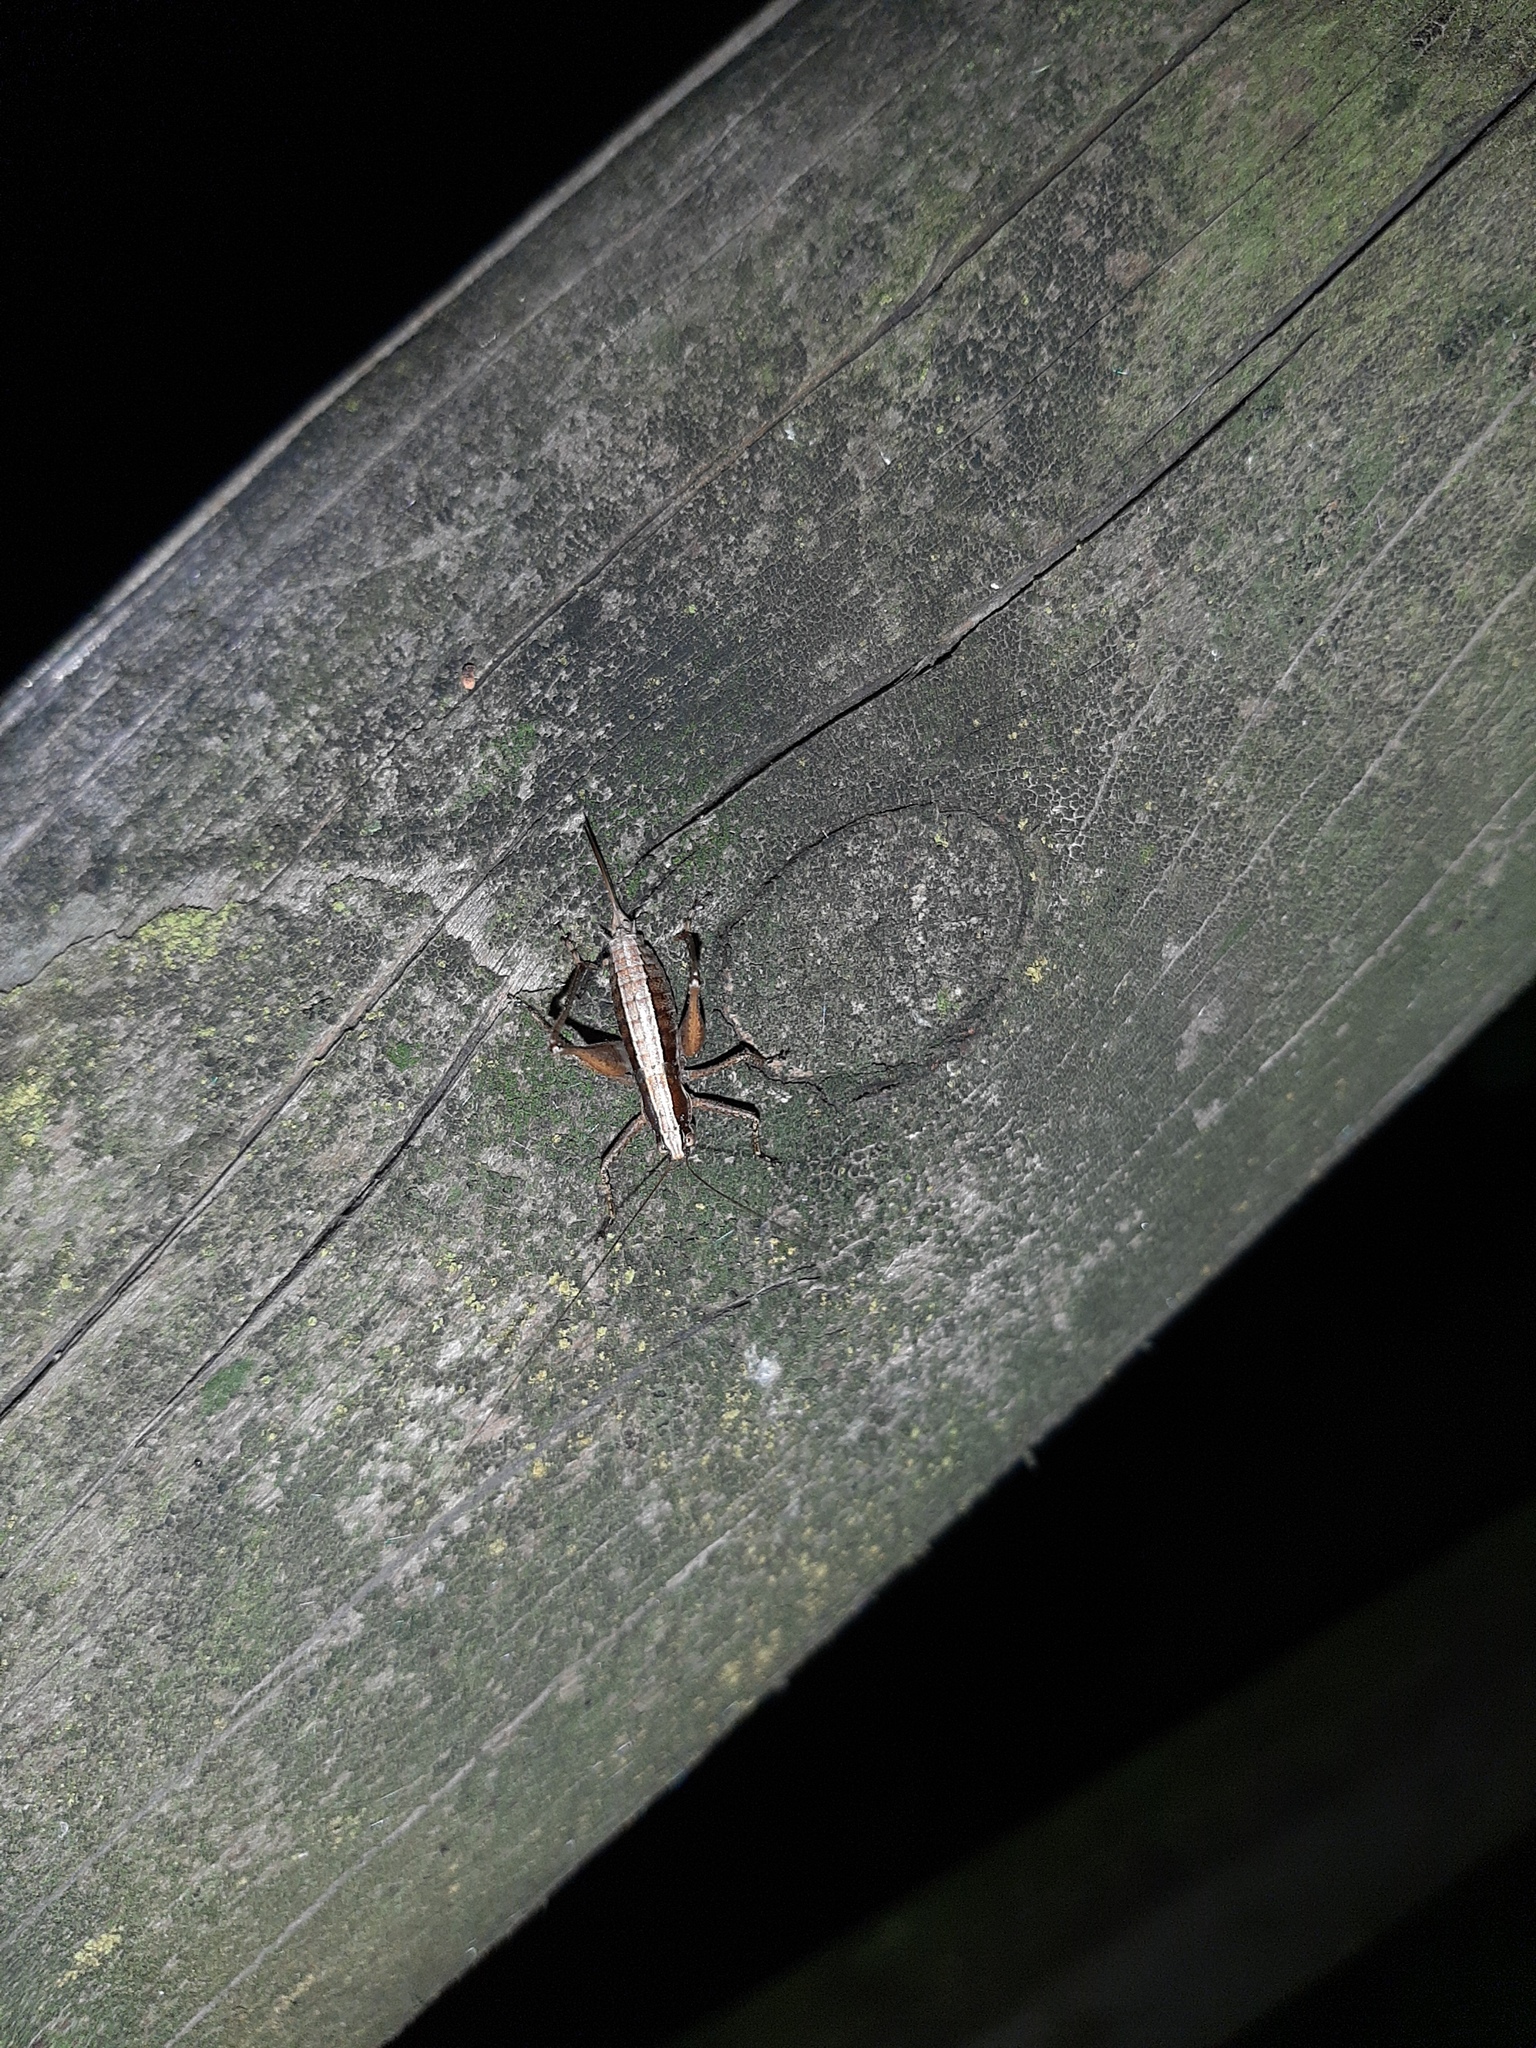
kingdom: Animalia
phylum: Arthropoda
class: Insecta
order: Orthoptera
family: Tettigoniidae
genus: Yersinella
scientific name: Yersinella raymondii
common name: Raymond's bush-cricket
